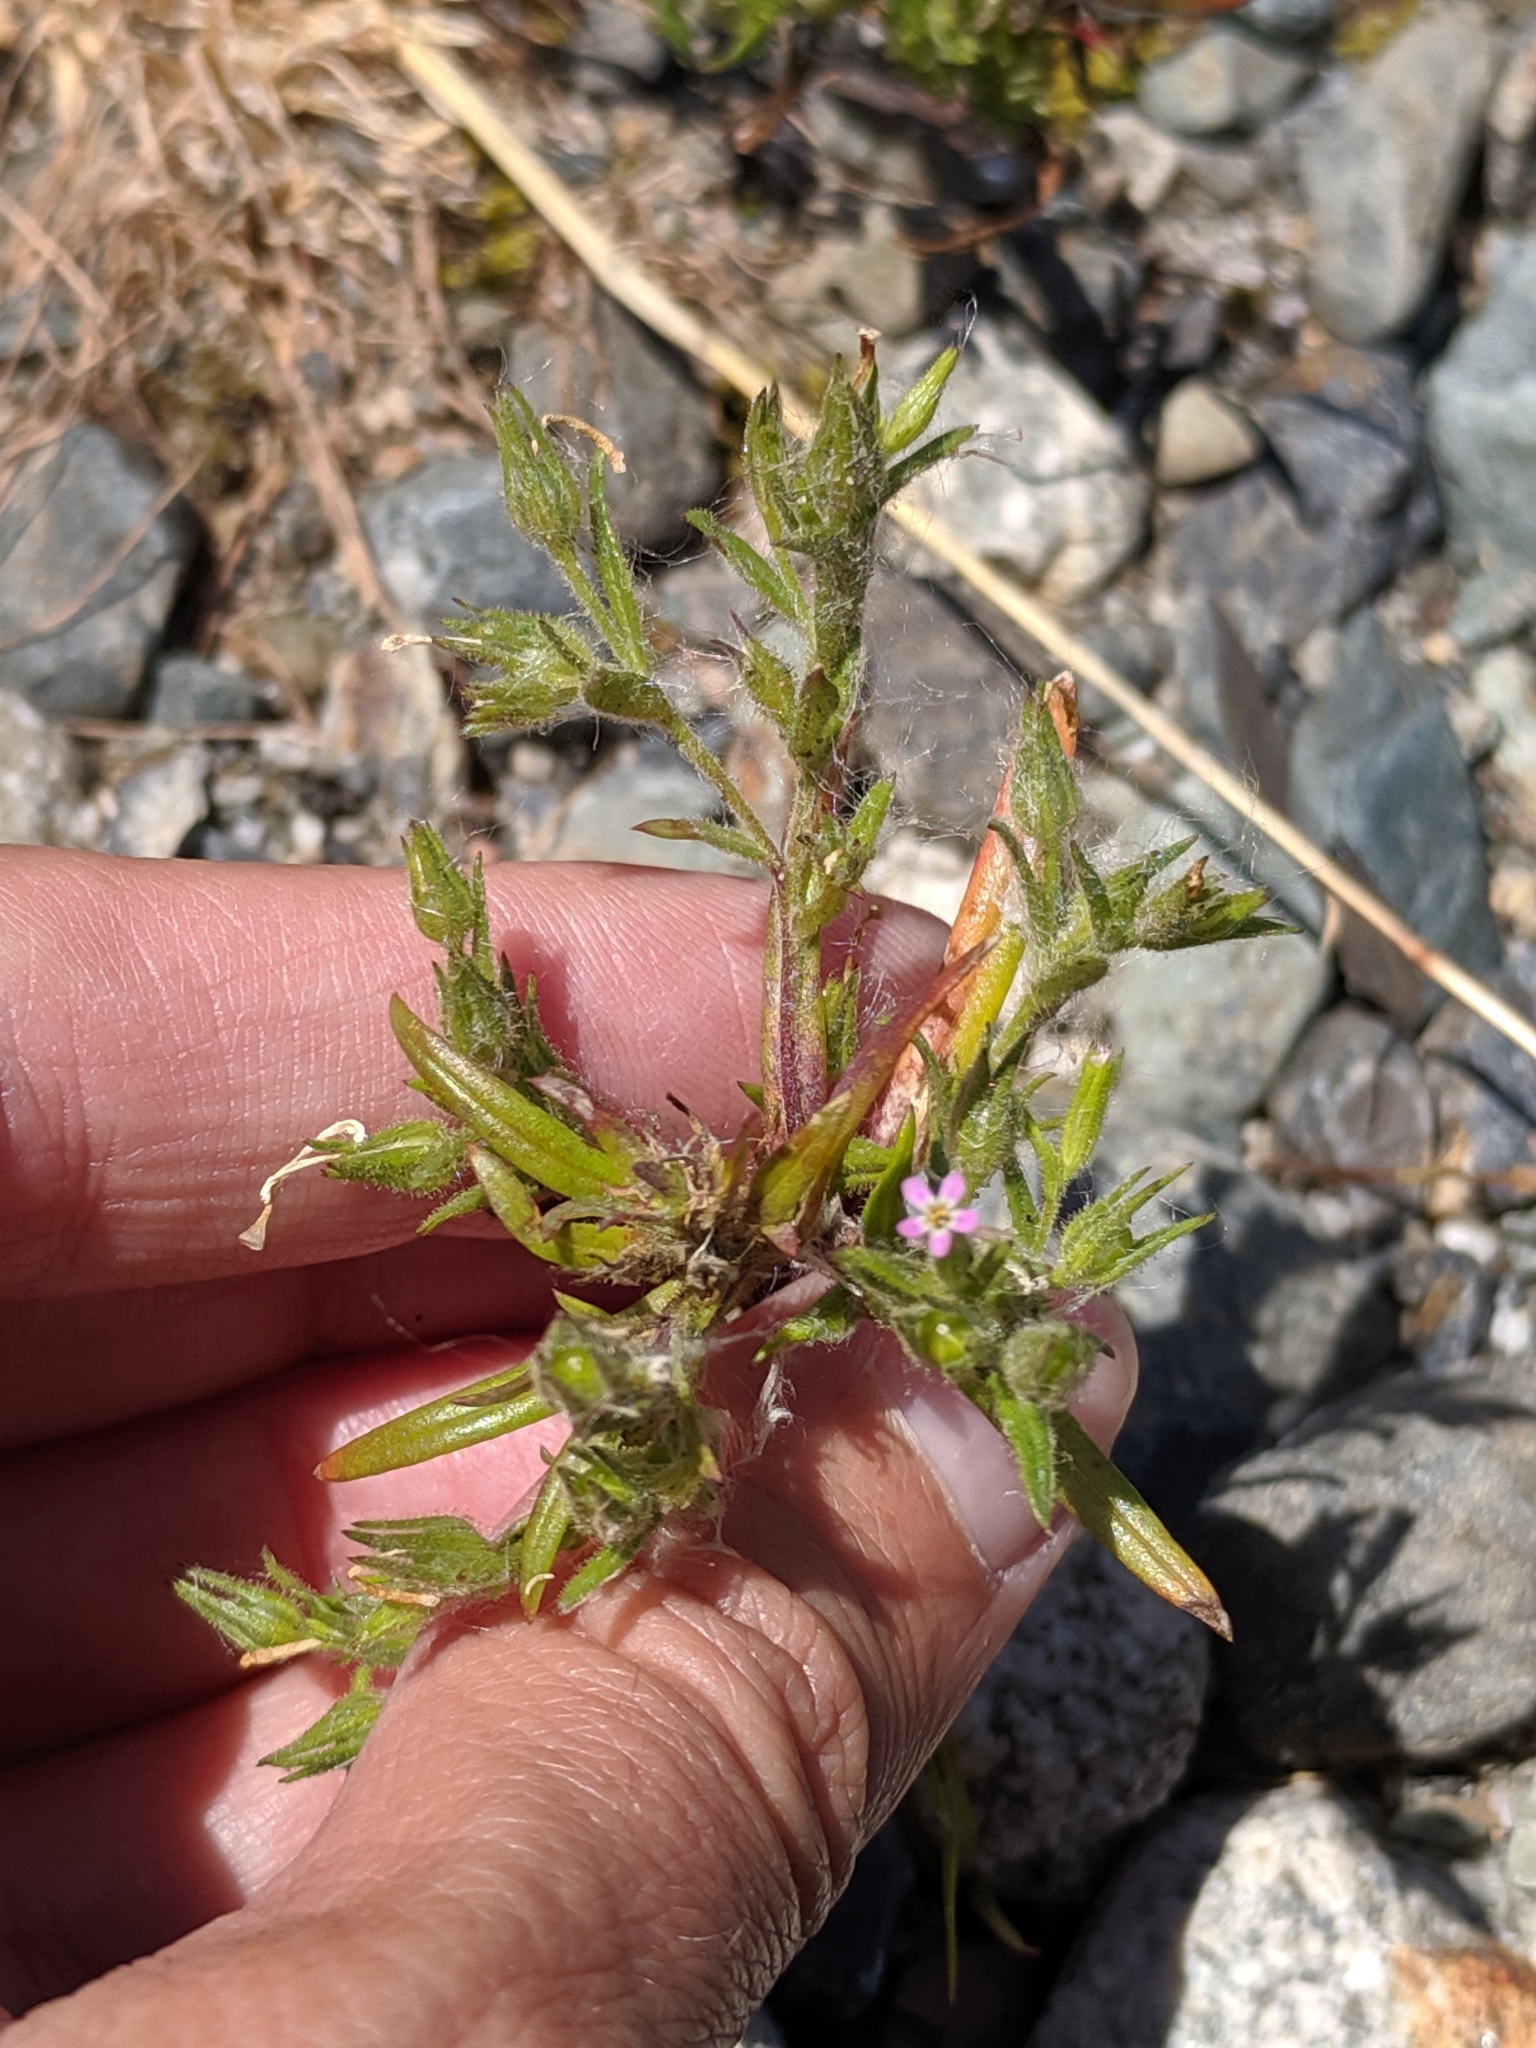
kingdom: Plantae
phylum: Tracheophyta
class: Magnoliopsida
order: Ericales
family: Polemoniaceae
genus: Phlox
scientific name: Phlox gracilis
